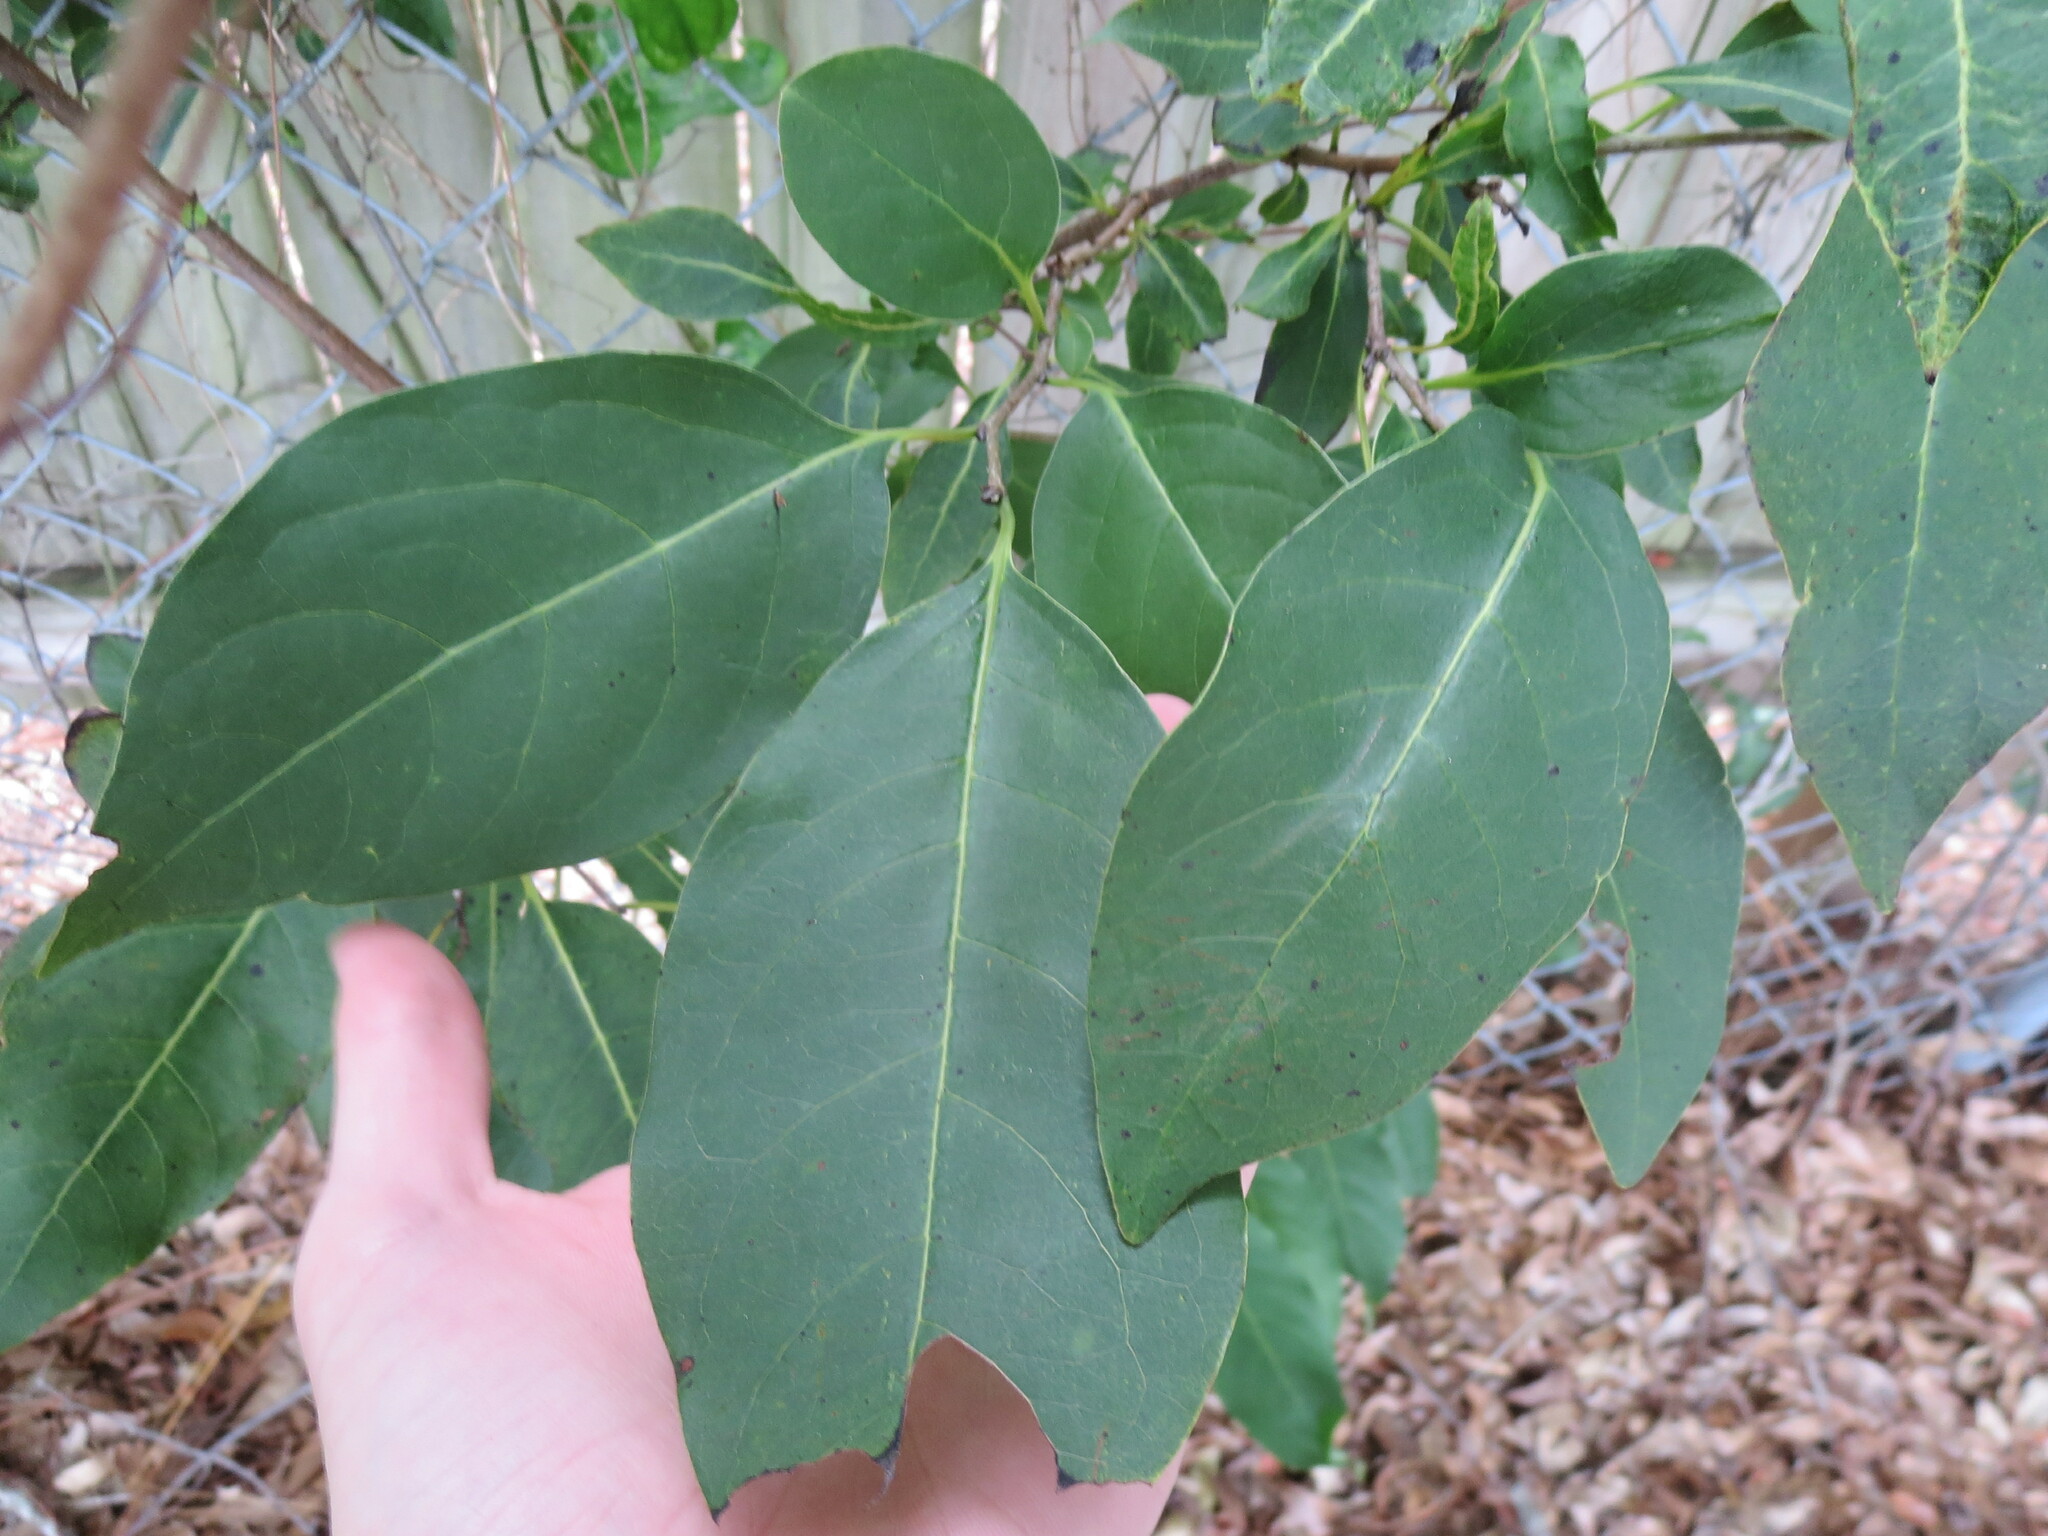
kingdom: Plantae
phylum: Tracheophyta
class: Magnoliopsida
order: Ericales
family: Ebenaceae
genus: Diospyros
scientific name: Diospyros virginiana
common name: Persimmon
